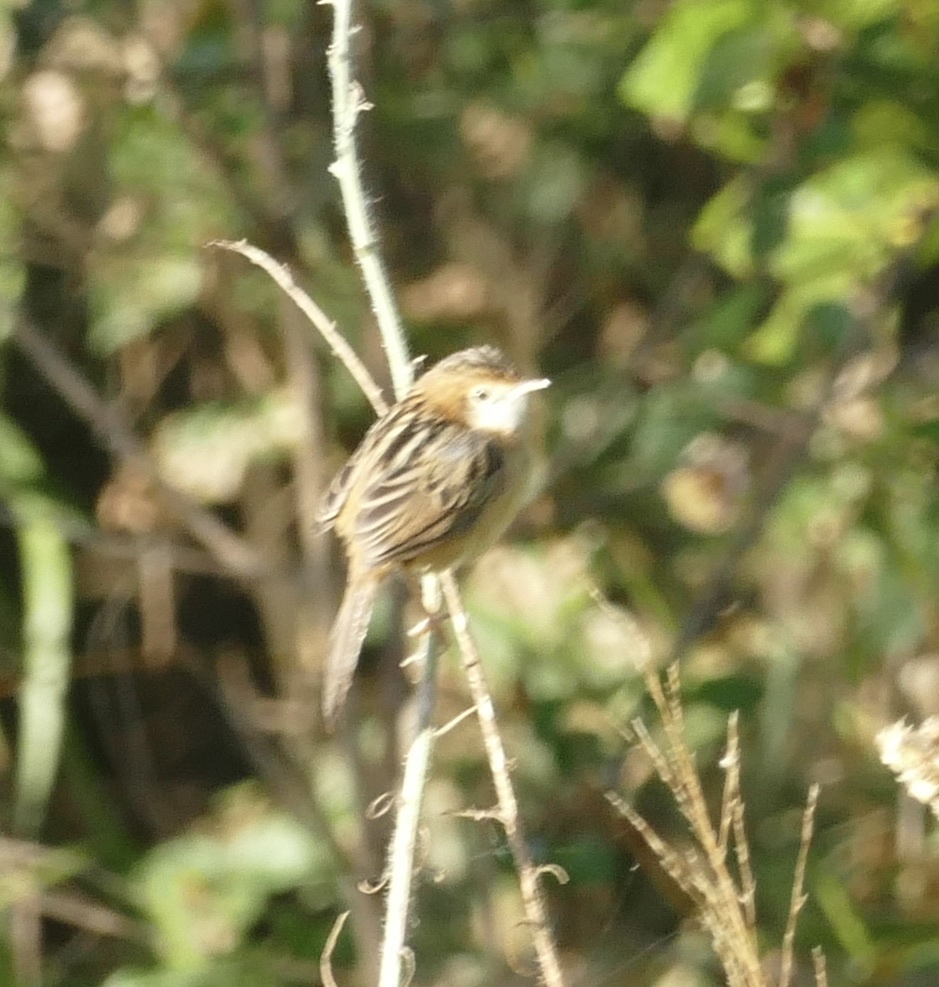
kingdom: Animalia
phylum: Chordata
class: Aves
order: Passeriformes
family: Cisticolidae
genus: Cisticola
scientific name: Cisticola exilis
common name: Golden-headed cisticola
